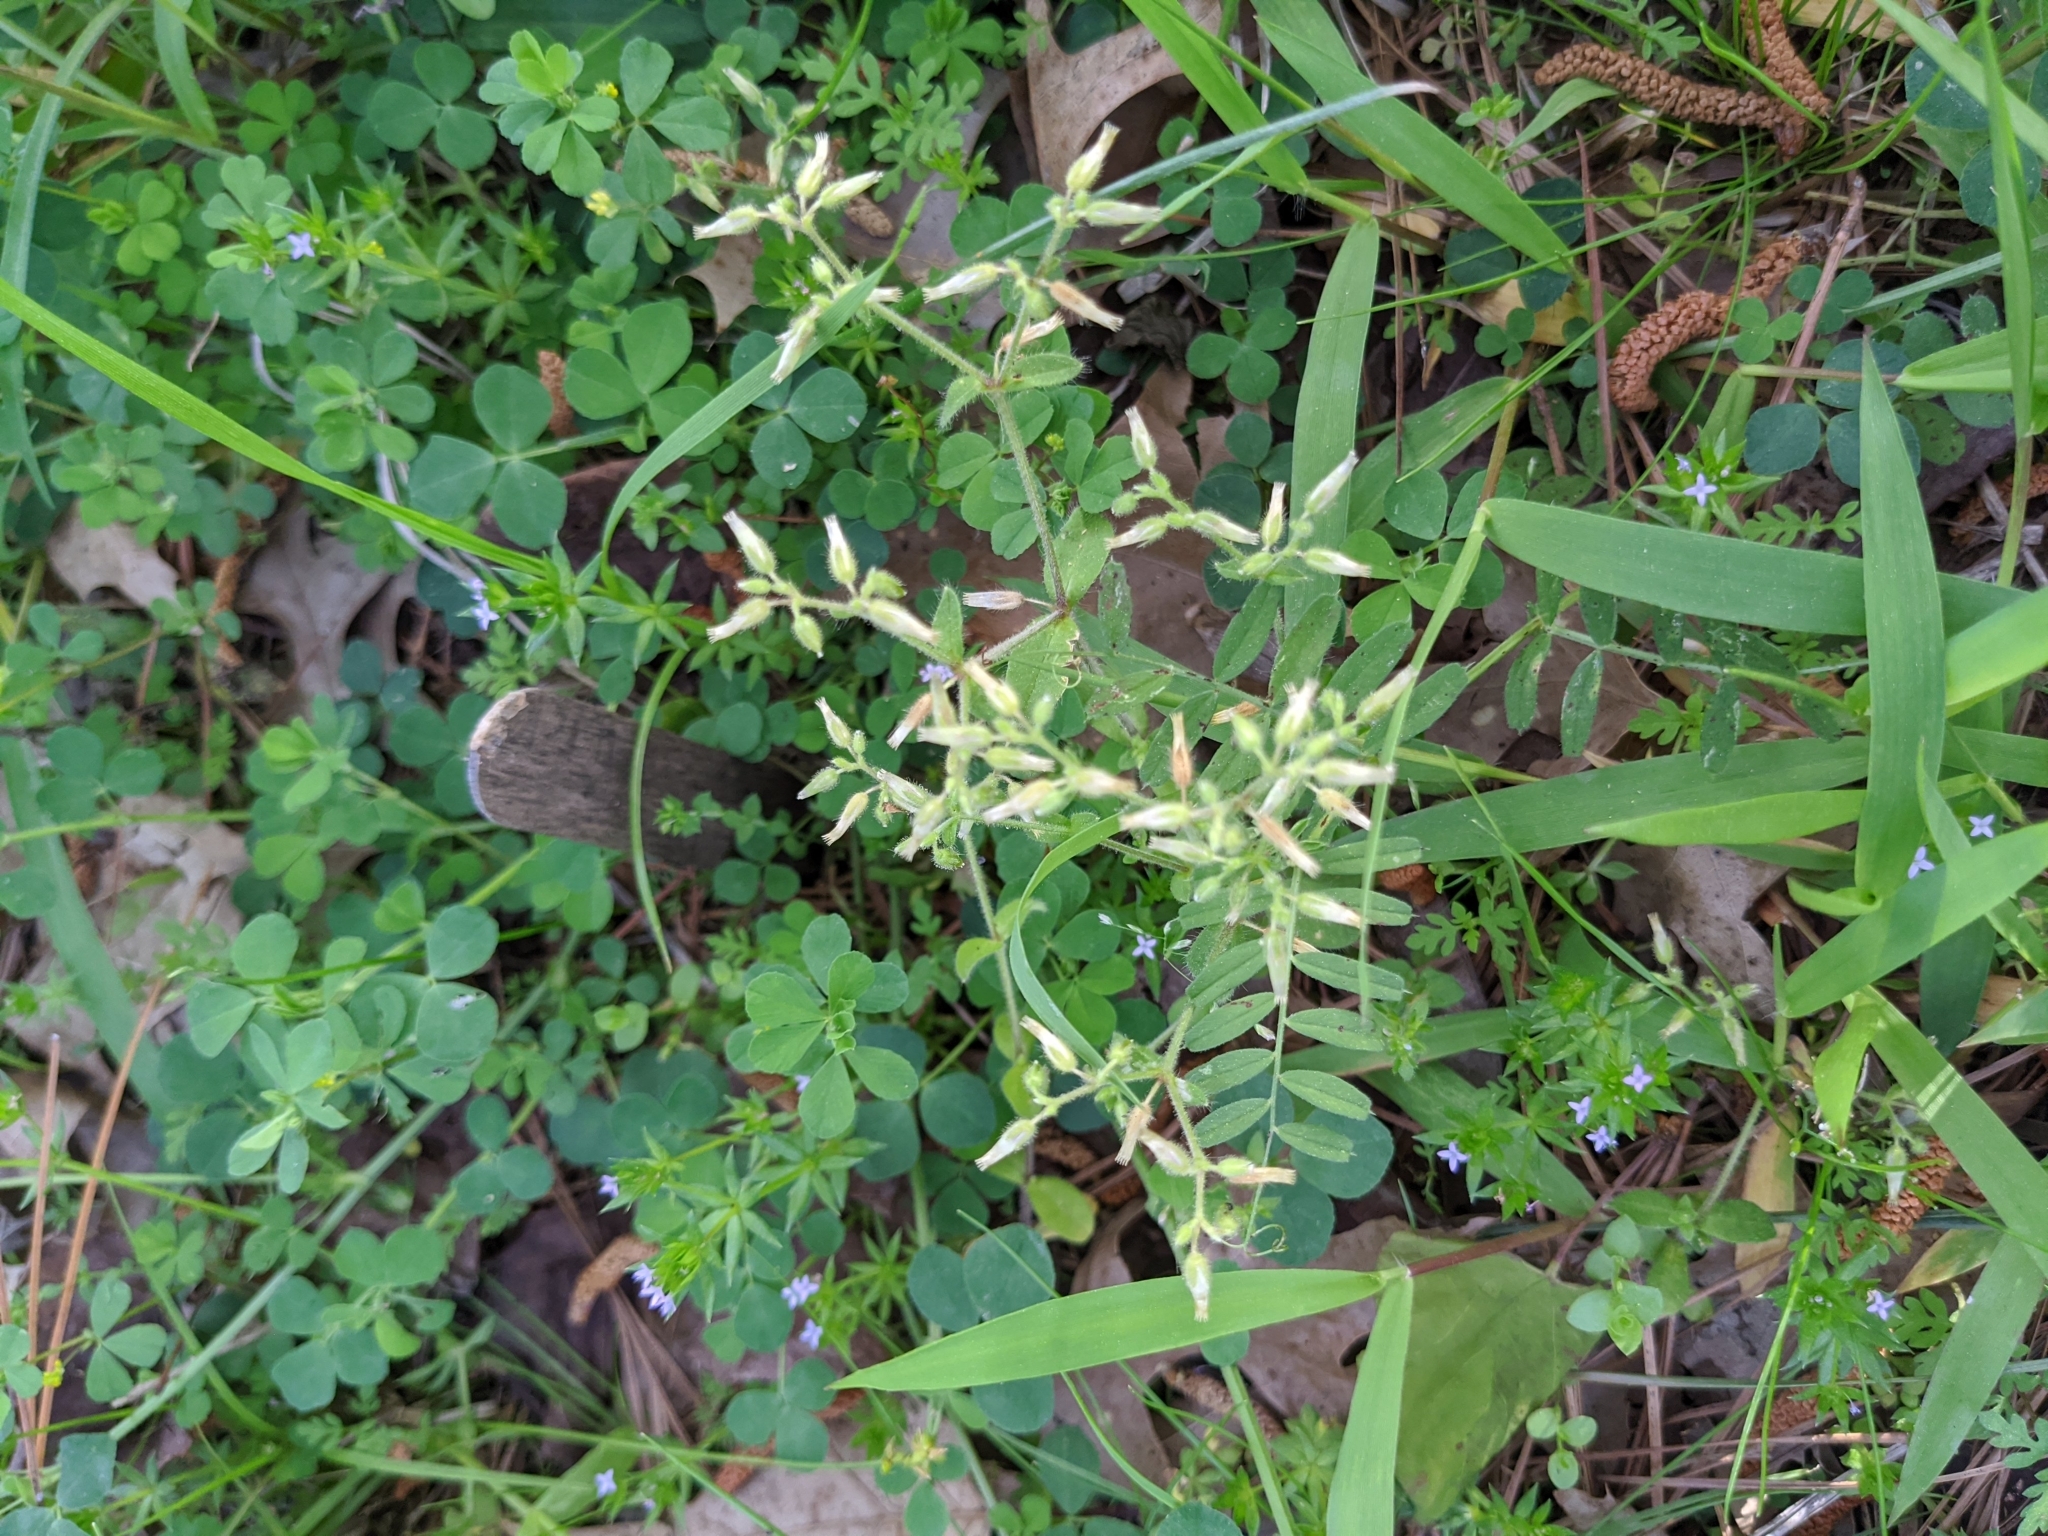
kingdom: Plantae
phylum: Tracheophyta
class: Magnoliopsida
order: Caryophyllales
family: Caryophyllaceae
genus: Cerastium
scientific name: Cerastium glomeratum
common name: Sticky chickweed
